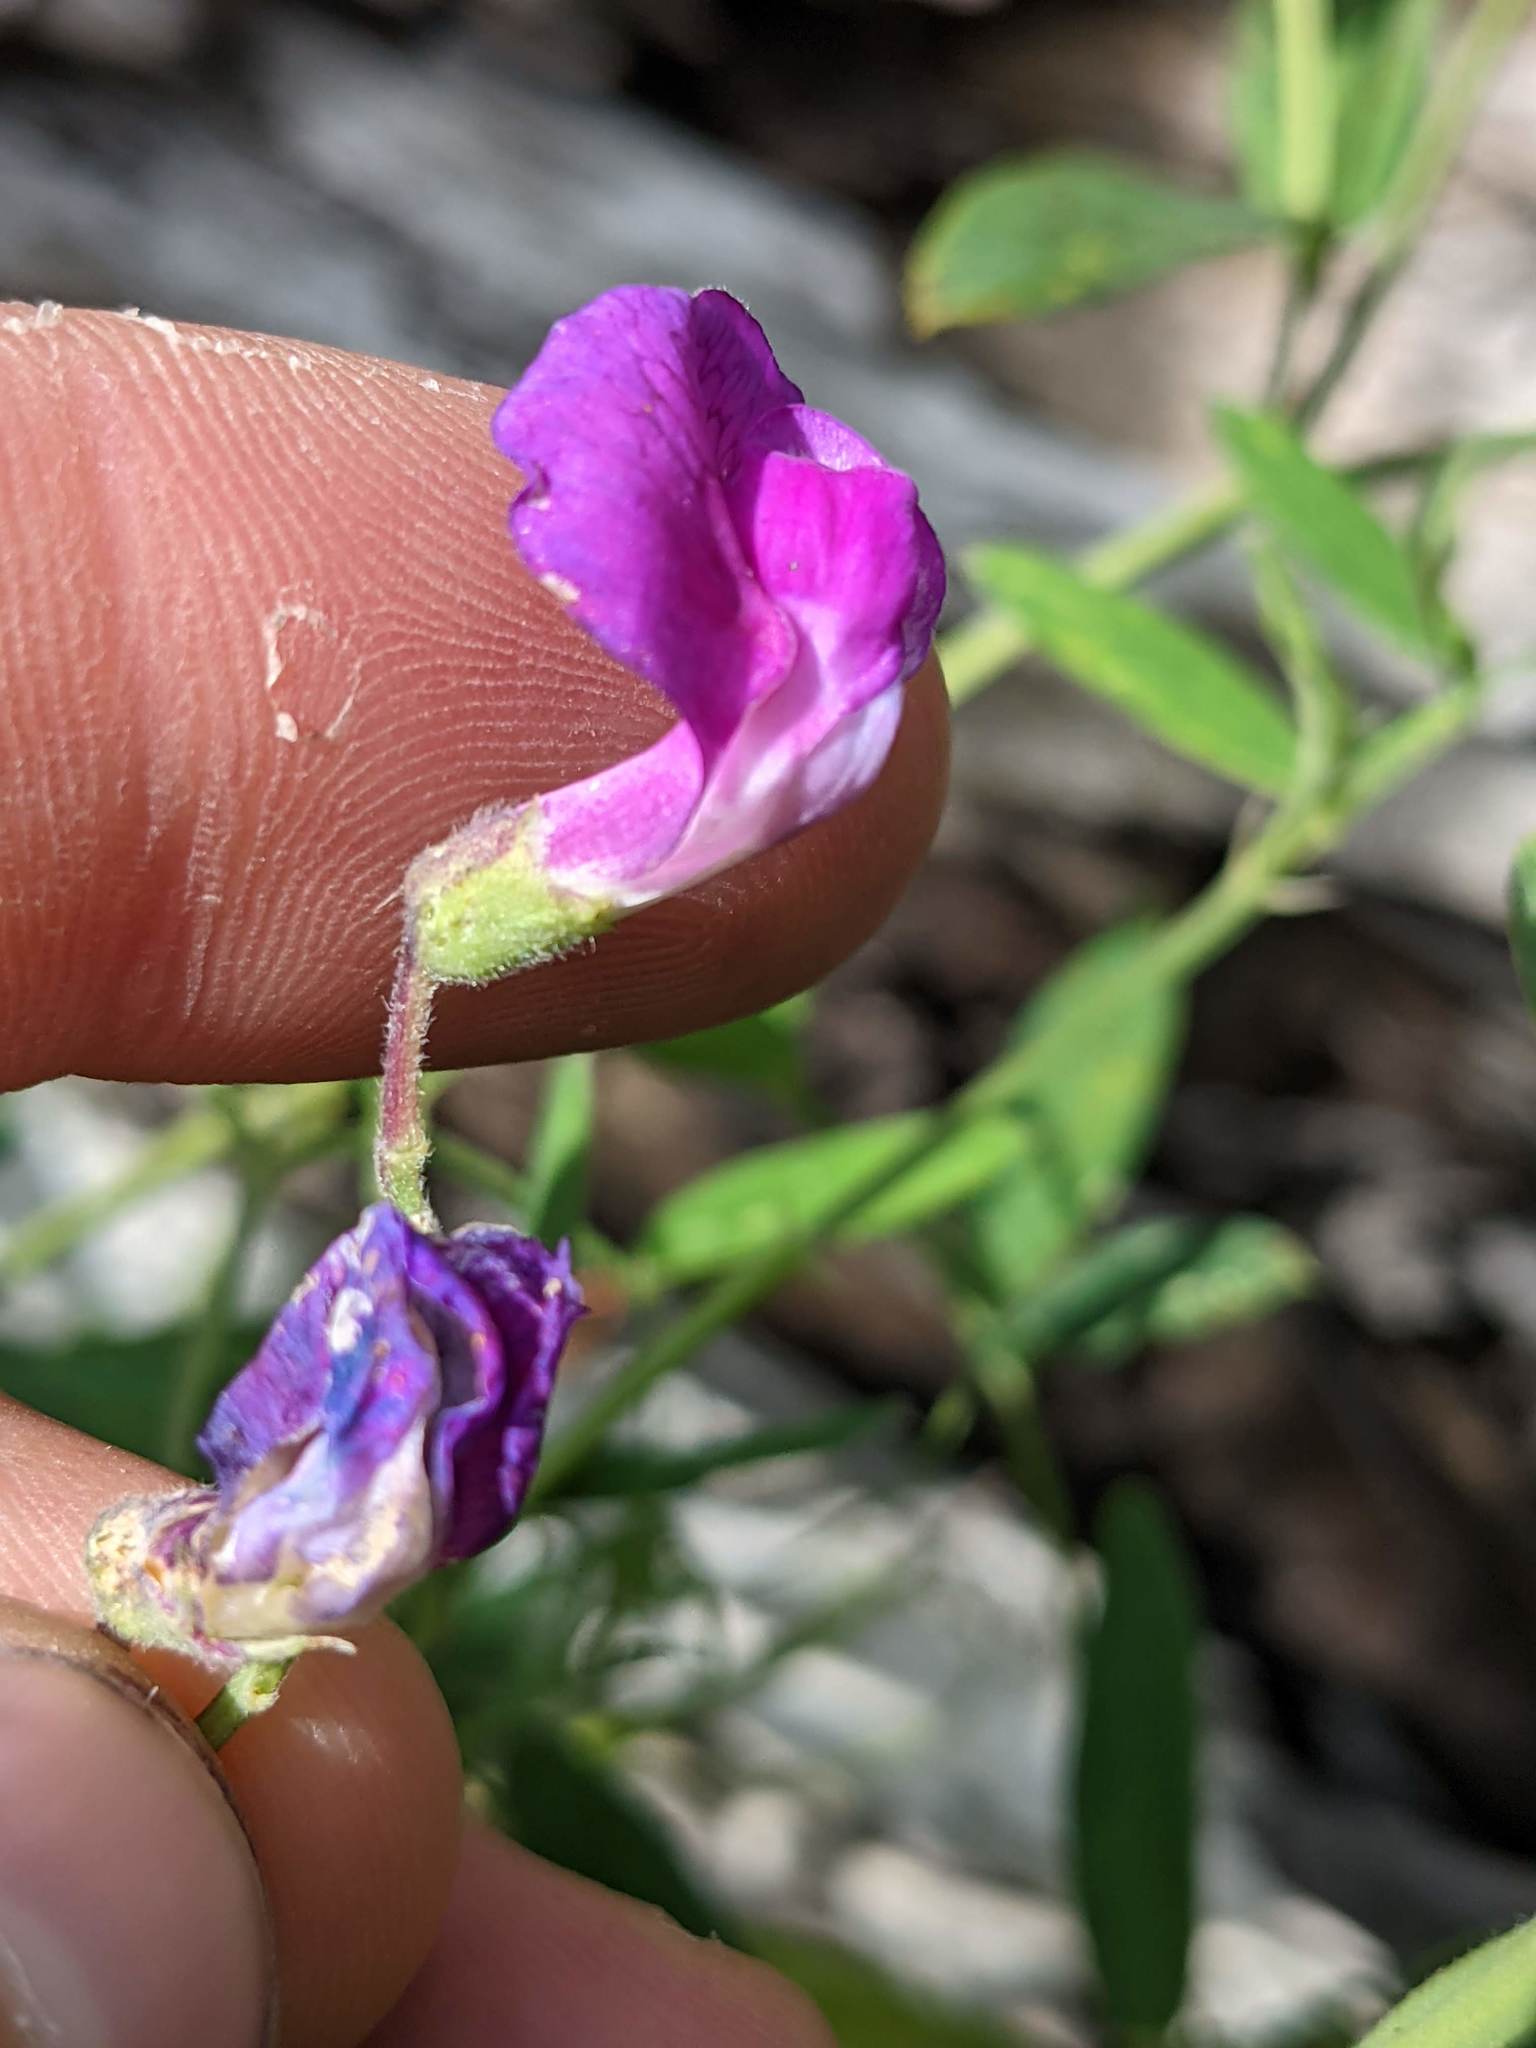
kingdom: Plantae
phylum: Tracheophyta
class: Magnoliopsida
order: Fabales
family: Fabaceae
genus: Lathyrus
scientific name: Lathyrus palustris
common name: Marsh pea
